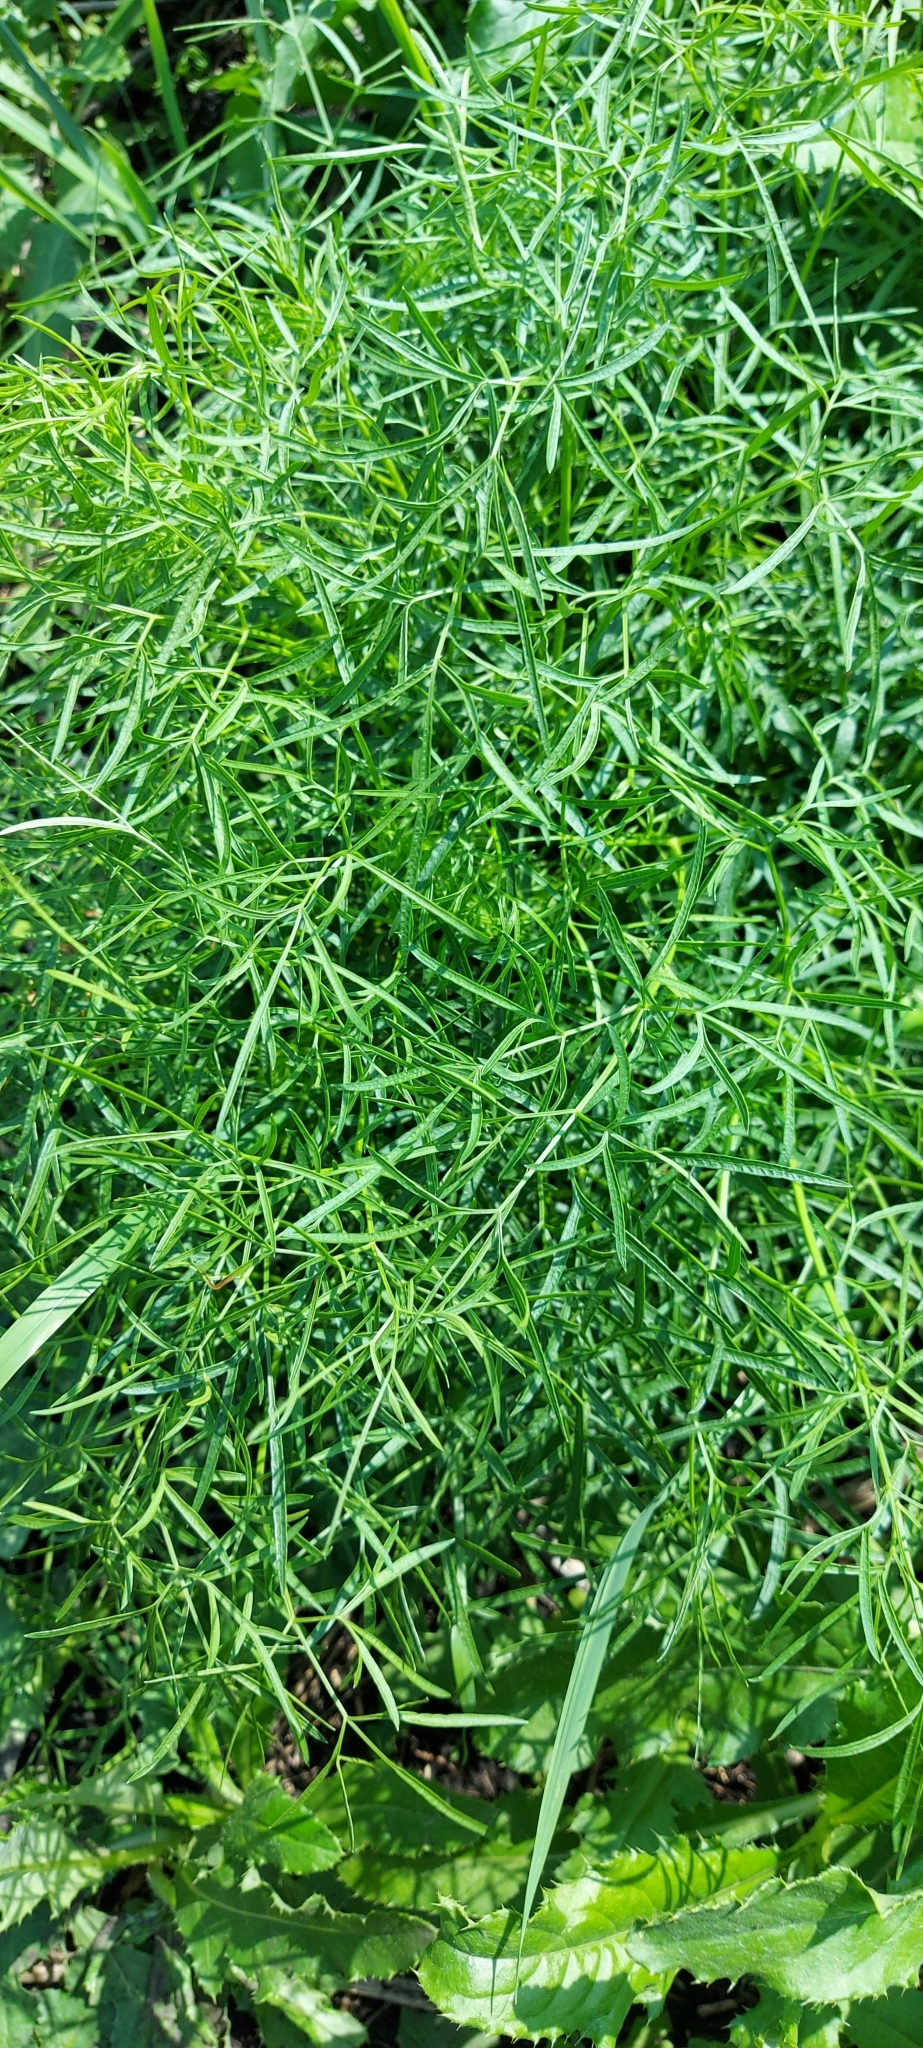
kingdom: Plantae
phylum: Tracheophyta
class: Magnoliopsida
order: Apiales
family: Apiaceae
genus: Silaum
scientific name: Silaum silaus
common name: Pepper-saxifrage
